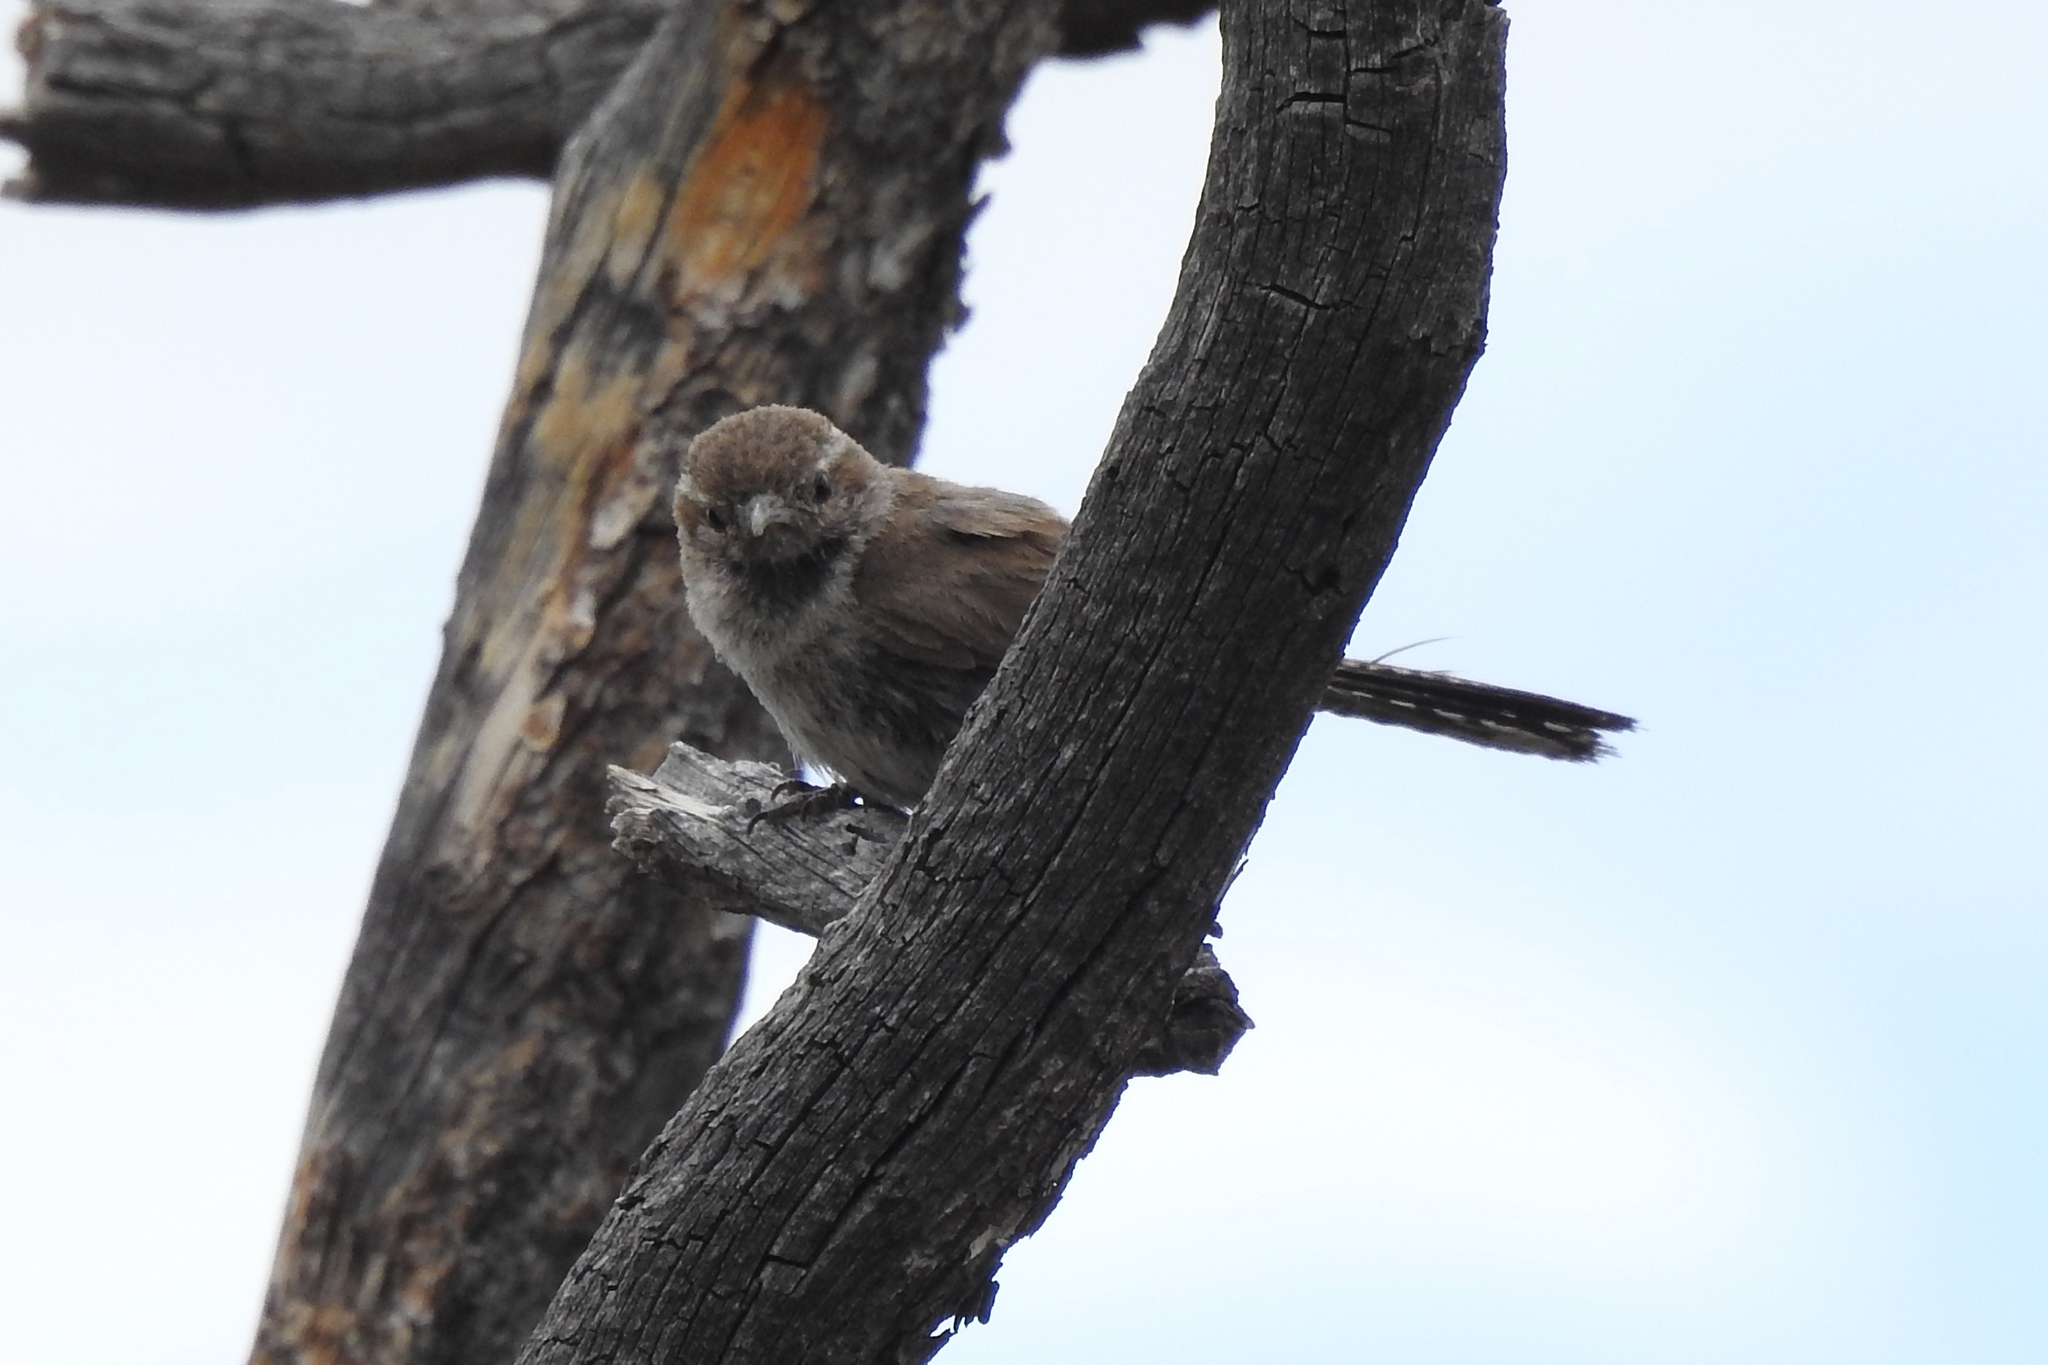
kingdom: Animalia
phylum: Chordata
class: Aves
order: Passeriformes
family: Troglodytidae
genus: Thryomanes
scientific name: Thryomanes bewickii
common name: Bewick's wren
